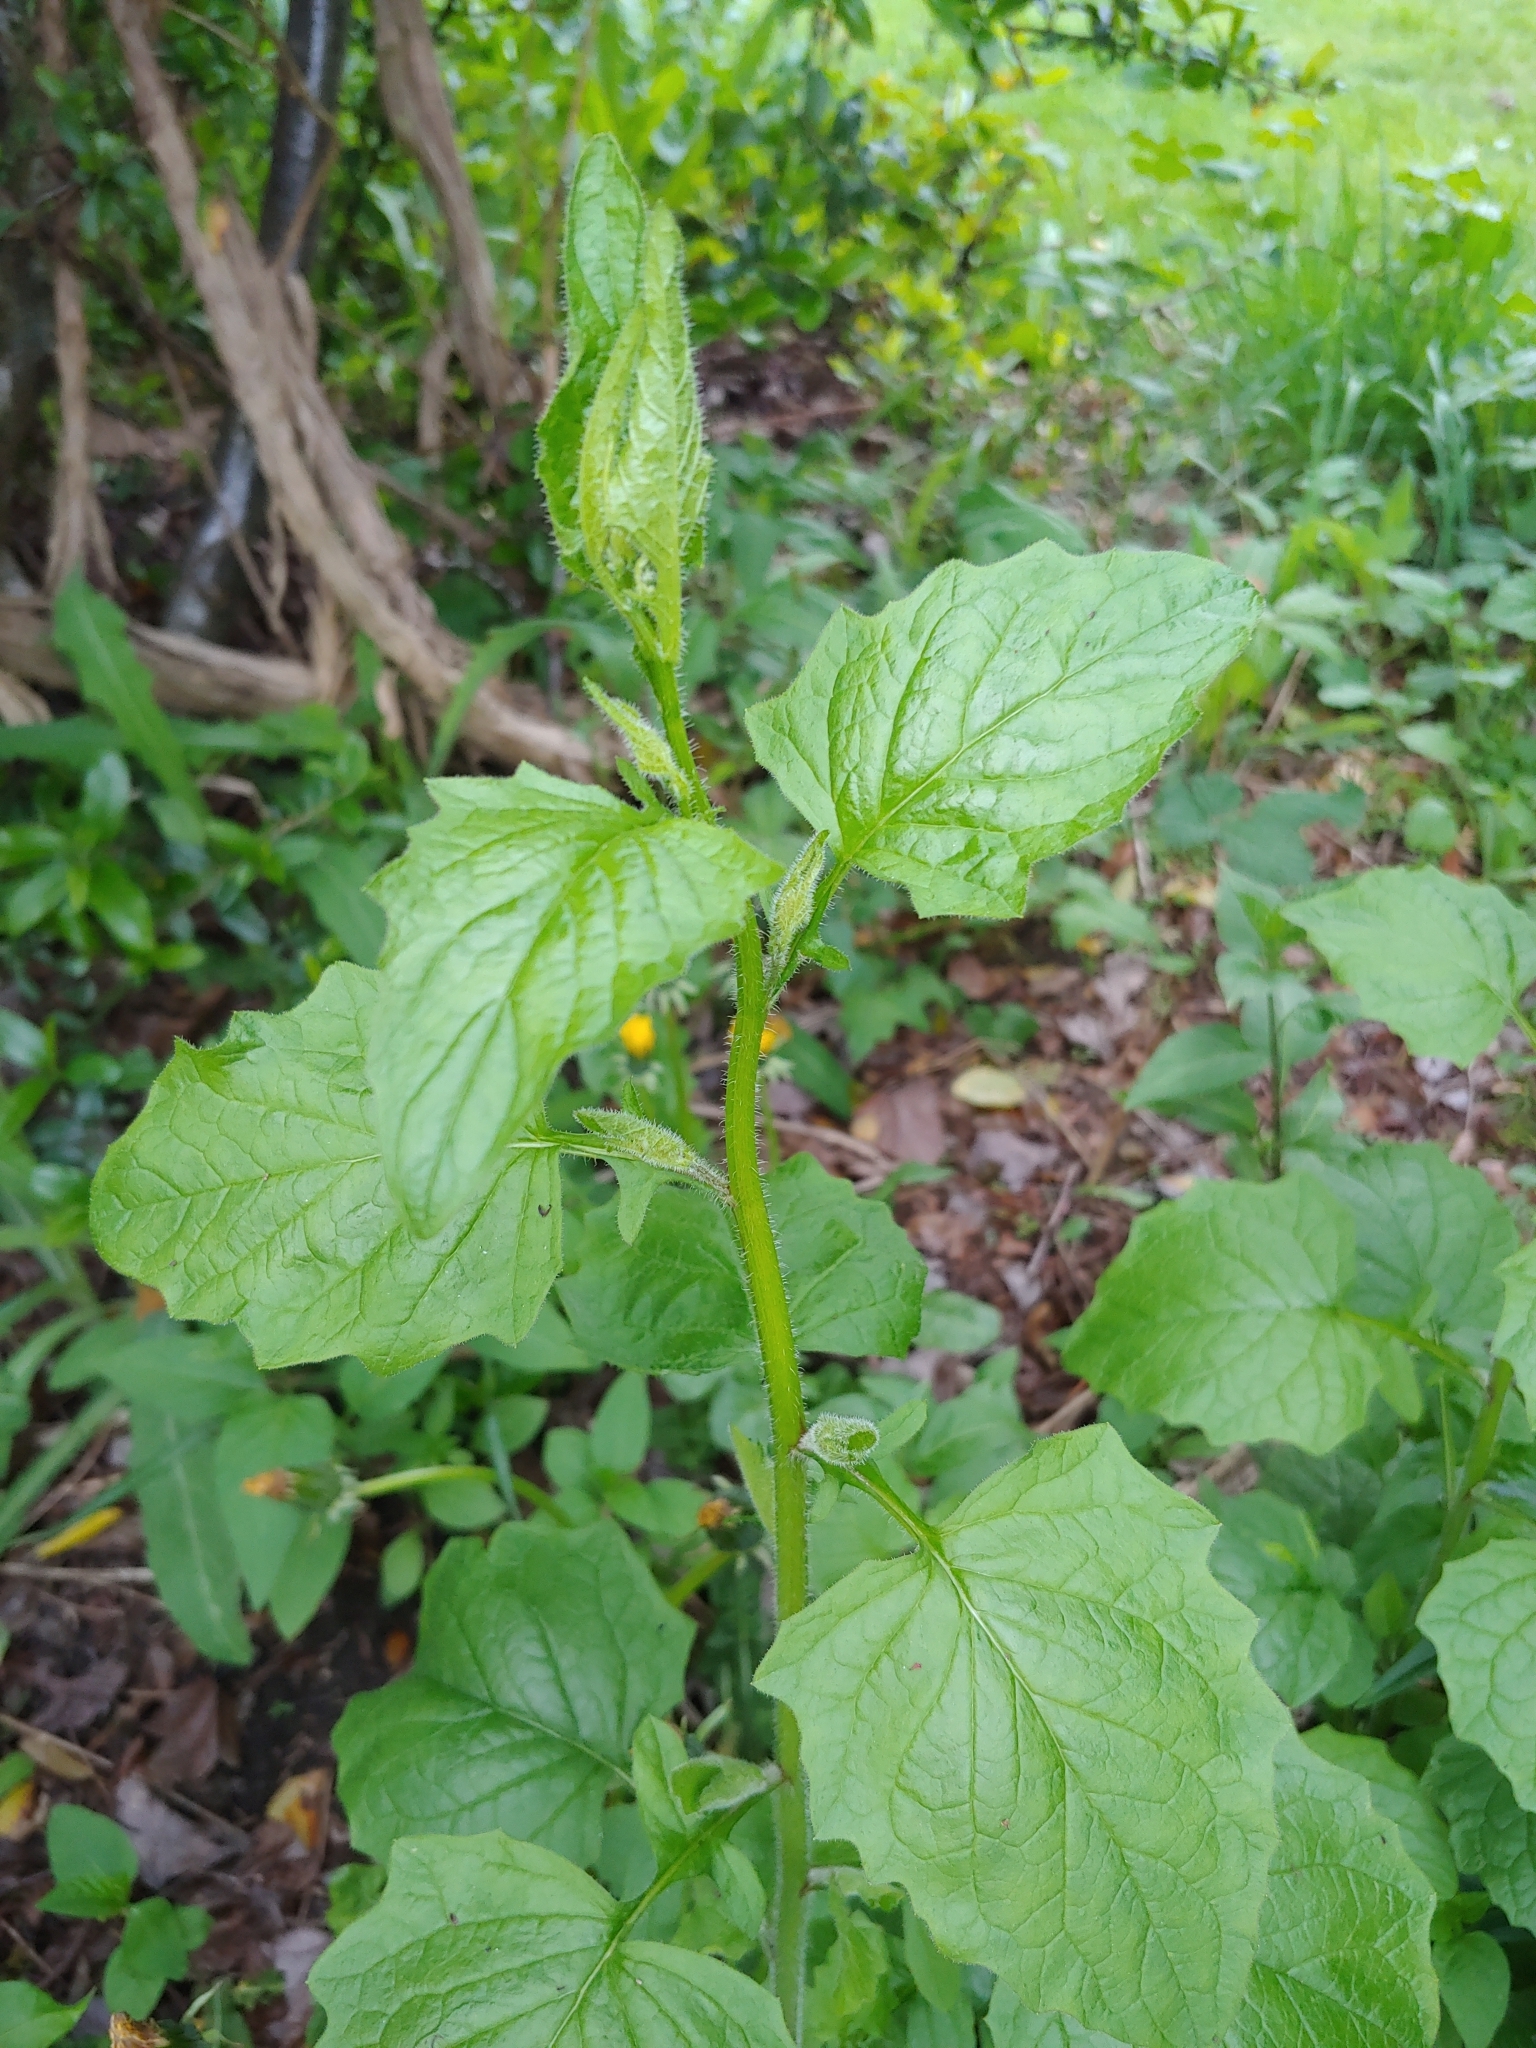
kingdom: Plantae
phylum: Tracheophyta
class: Magnoliopsida
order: Asterales
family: Asteraceae
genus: Lapsana
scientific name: Lapsana communis
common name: Nipplewort
